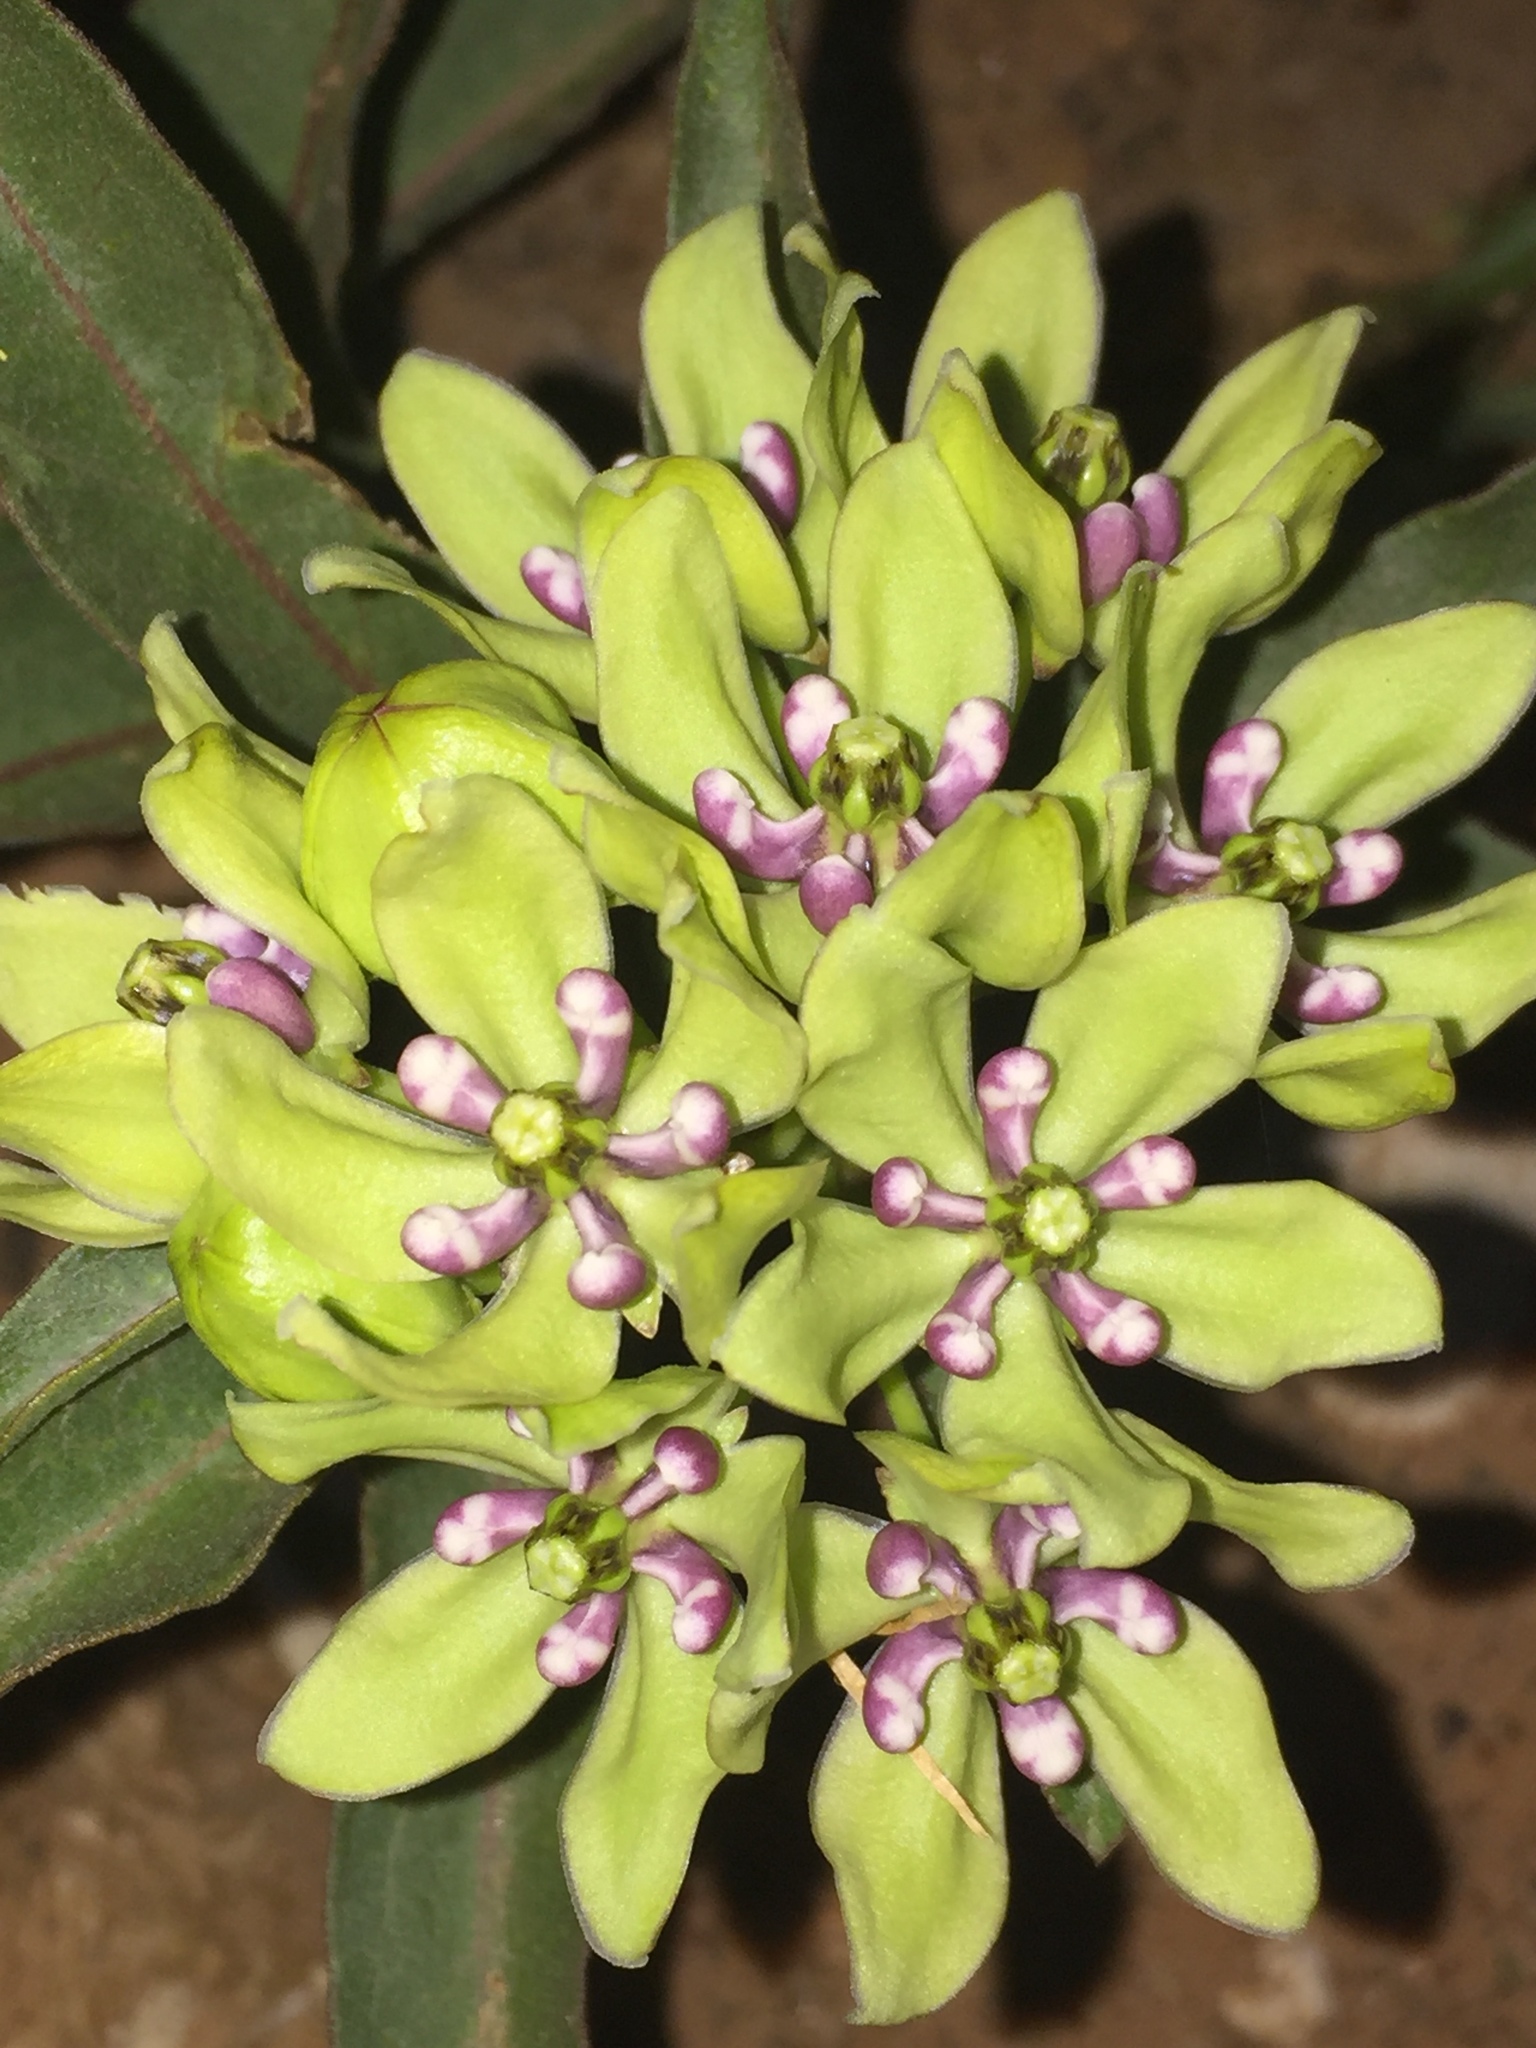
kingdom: Plantae
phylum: Tracheophyta
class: Magnoliopsida
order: Gentianales
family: Apocynaceae
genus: Asclepias
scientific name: Asclepias viridis
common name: Antelope-horns
